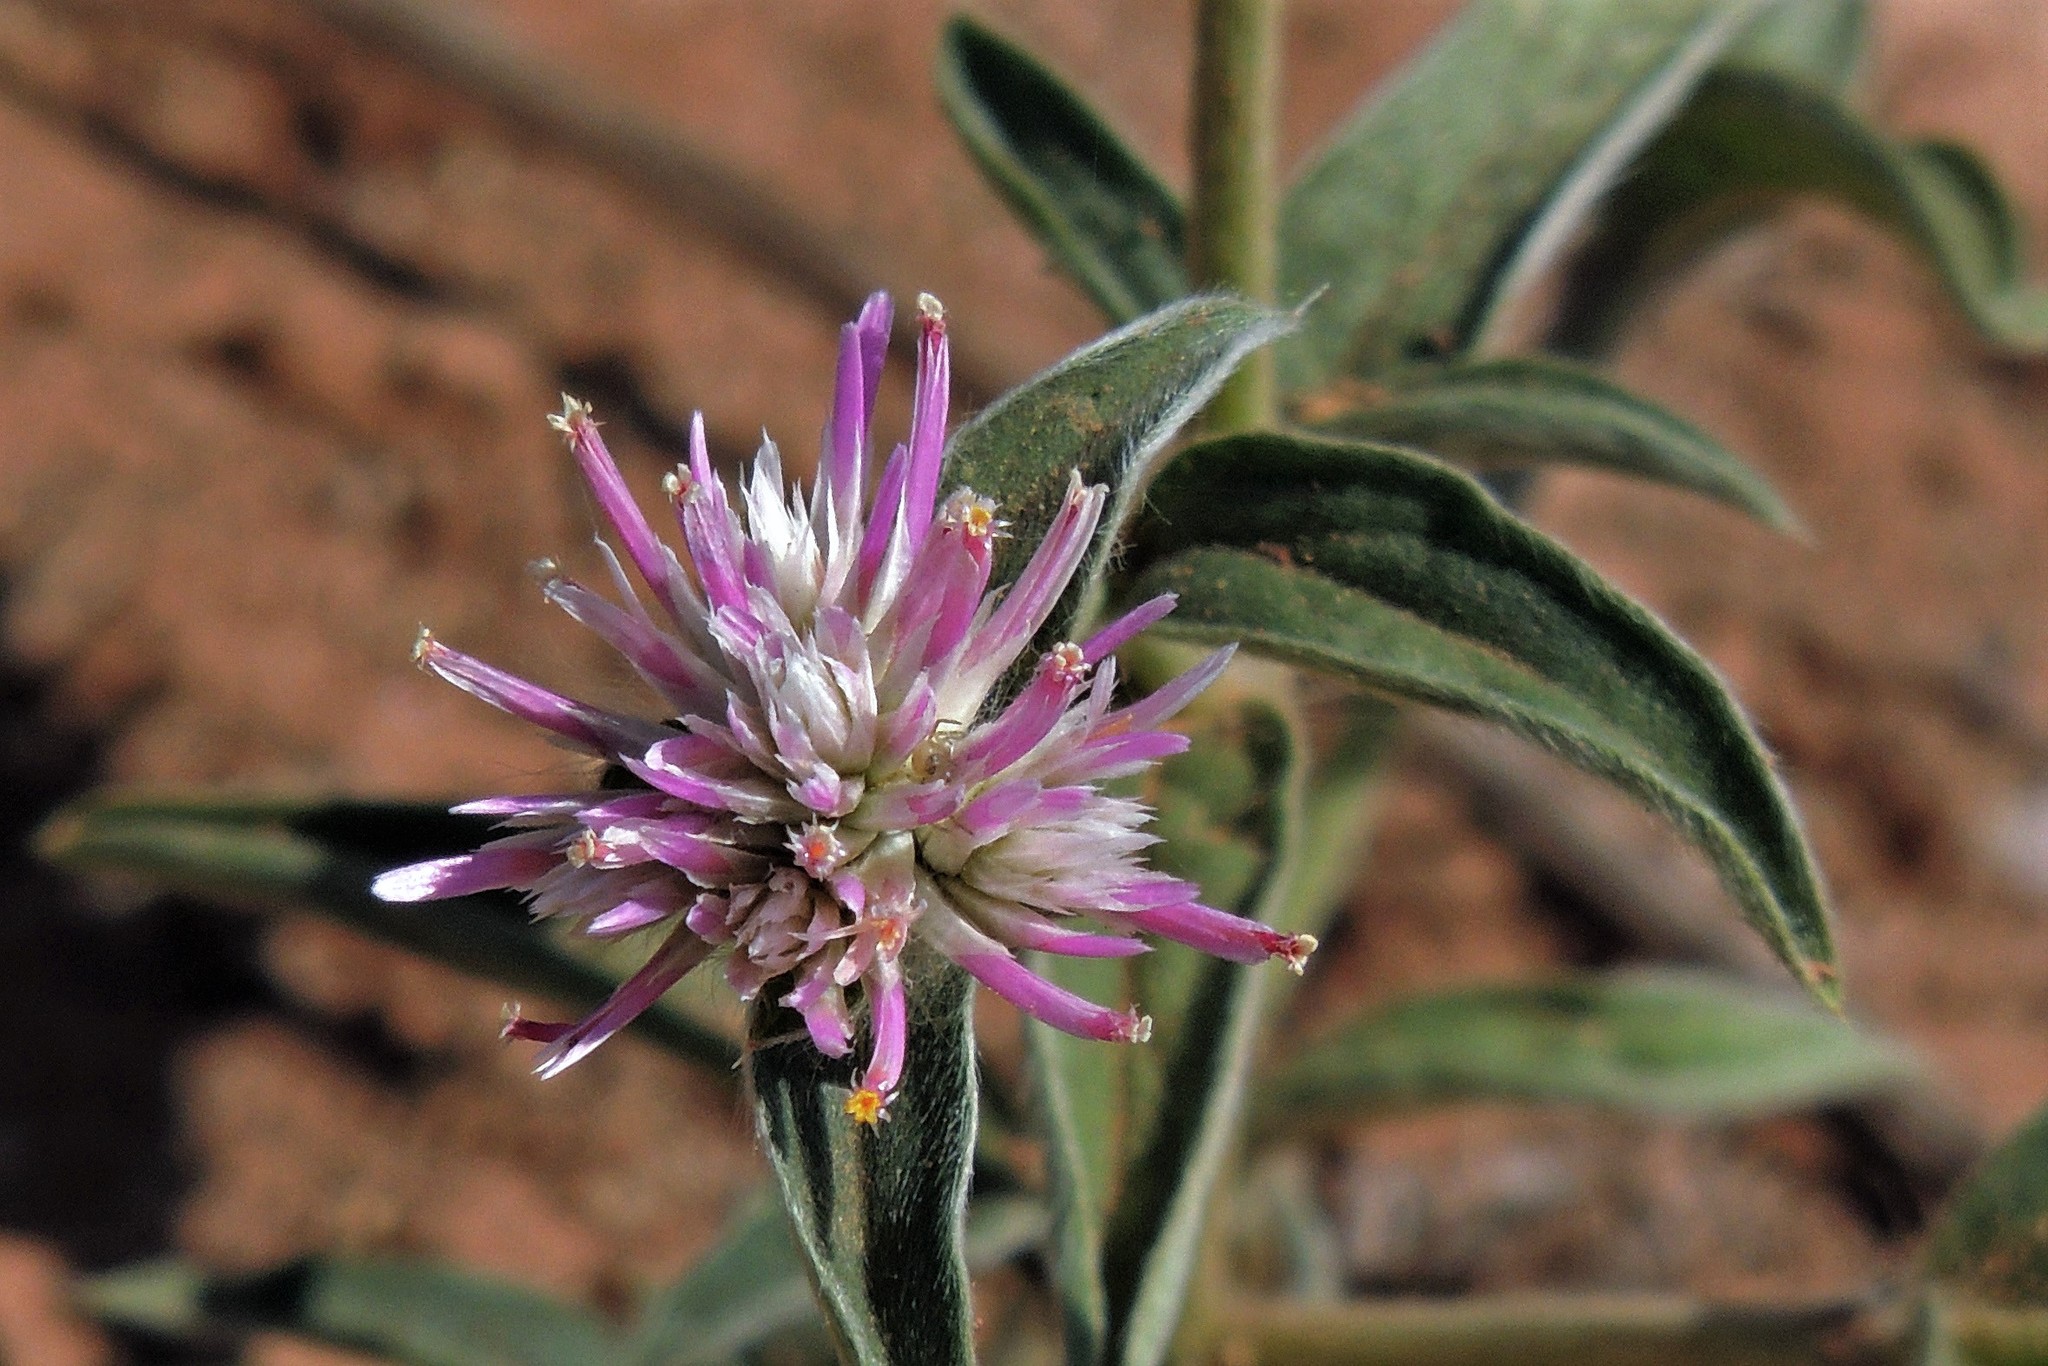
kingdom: Plantae
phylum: Tracheophyta
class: Magnoliopsida
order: Caryophyllales
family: Amaranthaceae
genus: Gomphrena
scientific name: Gomphrena
